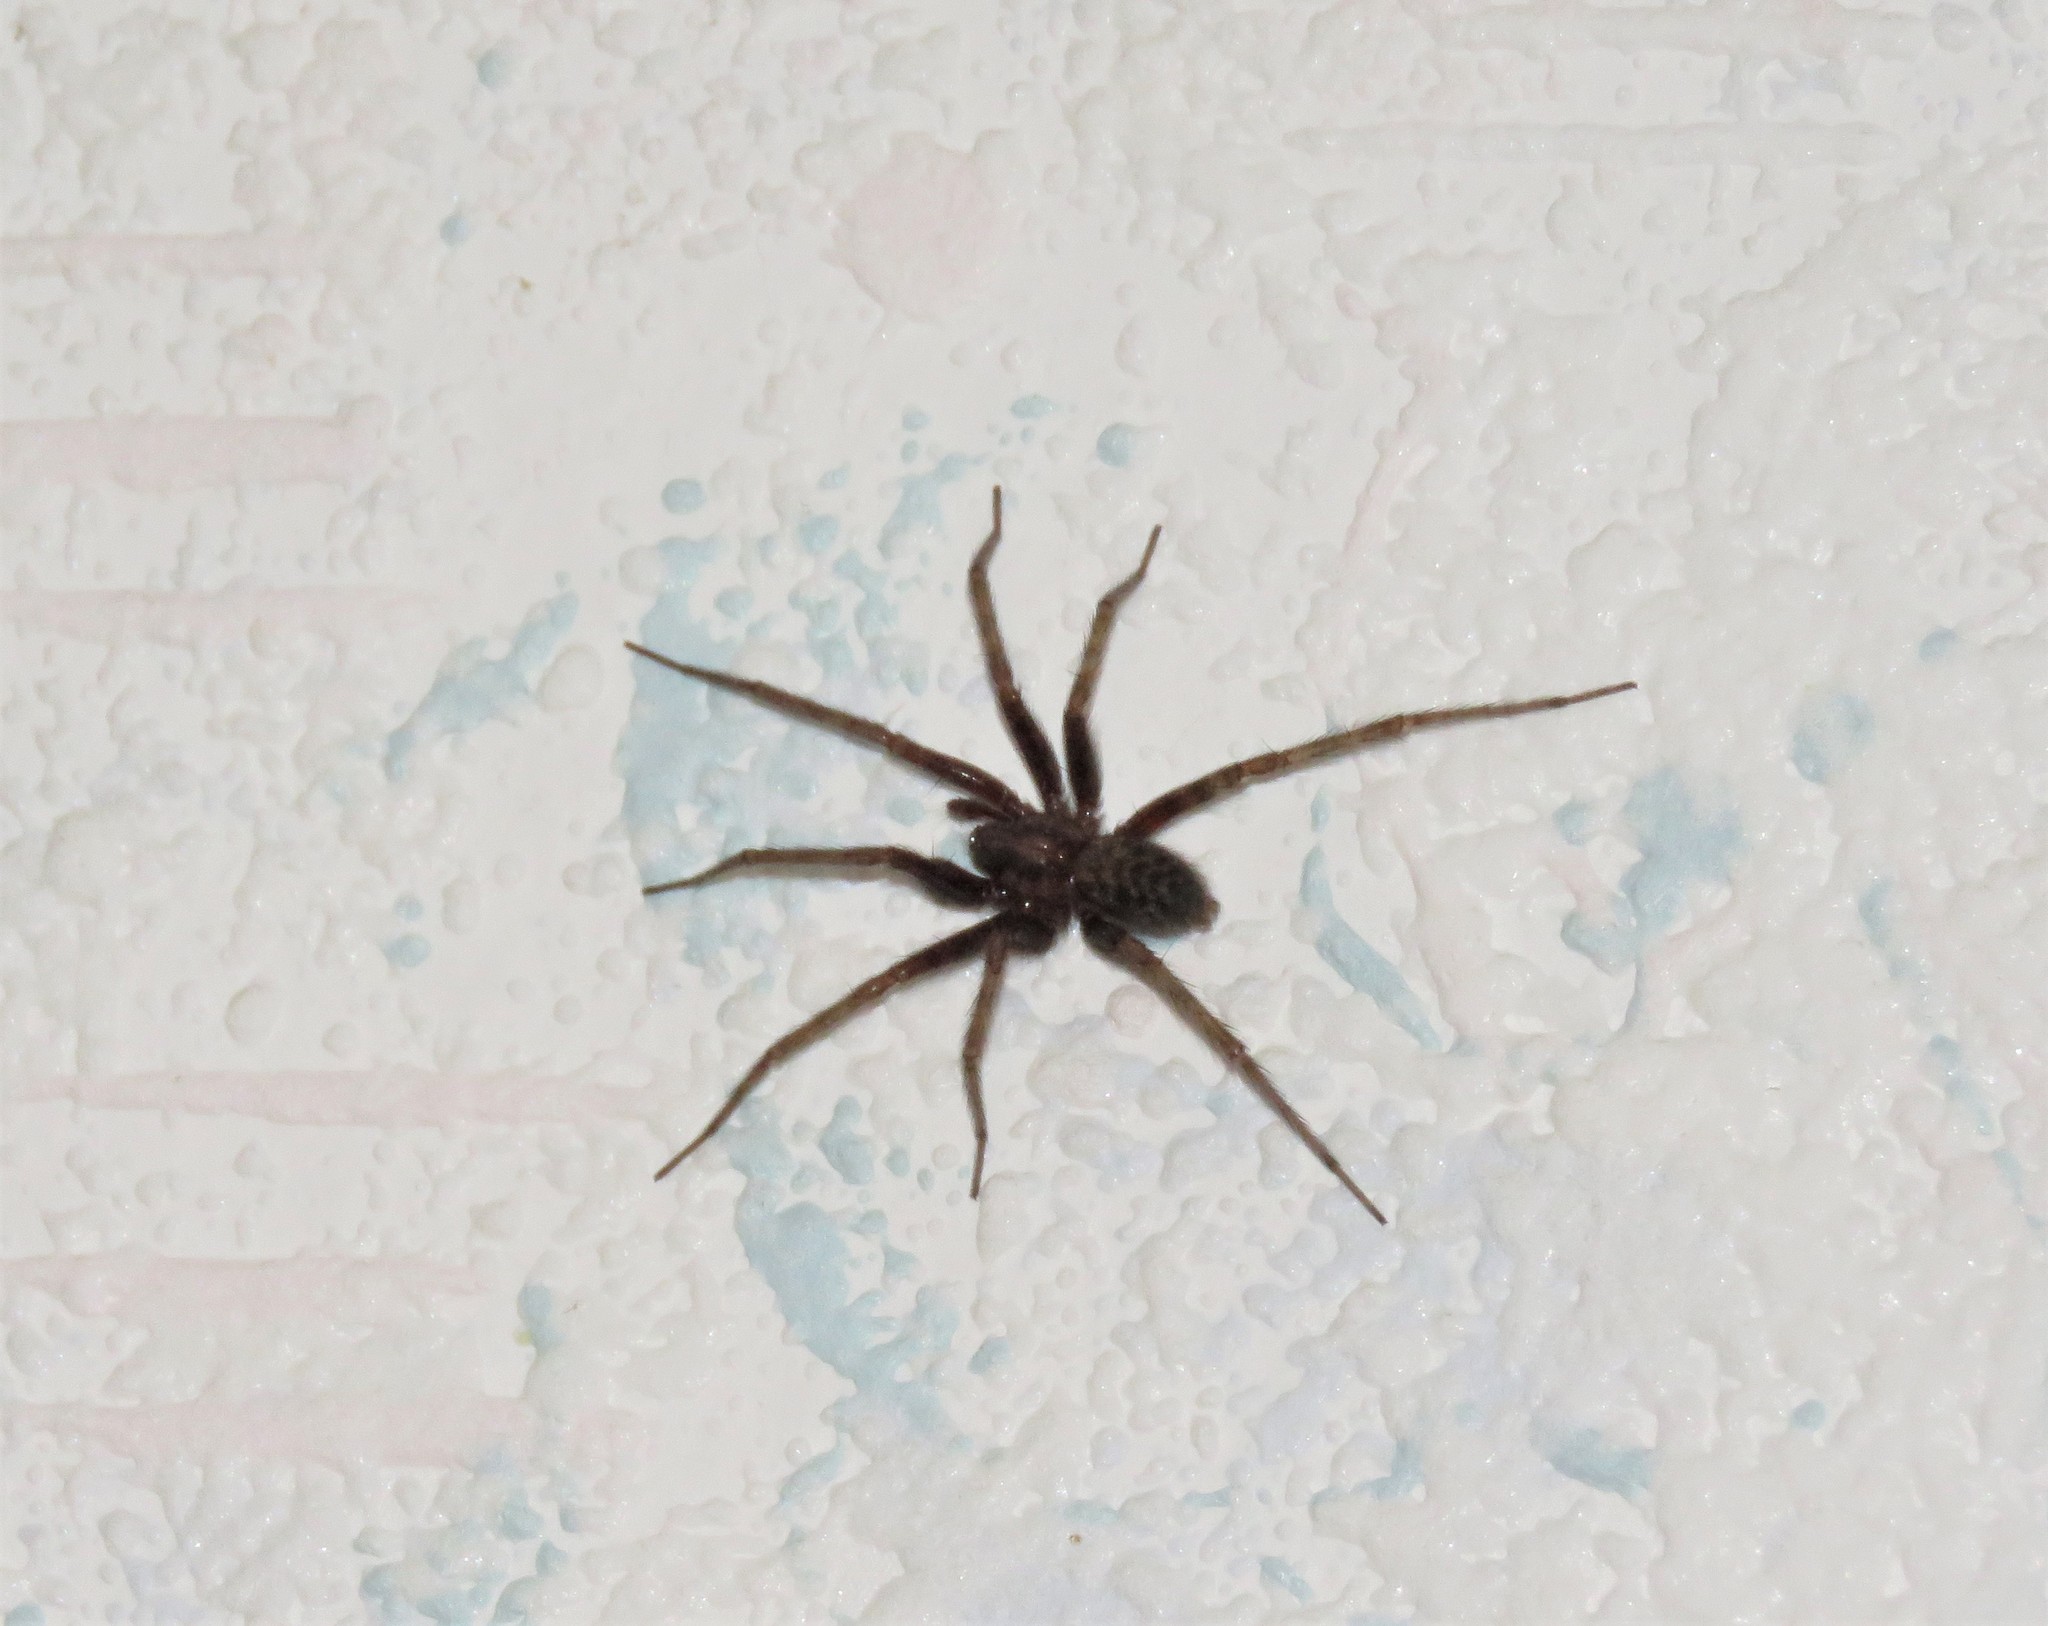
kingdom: Animalia
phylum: Arthropoda
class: Arachnida
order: Araneae
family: Agelenidae
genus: Tegenaria
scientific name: Tegenaria domestica
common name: Barn funnel weaver
